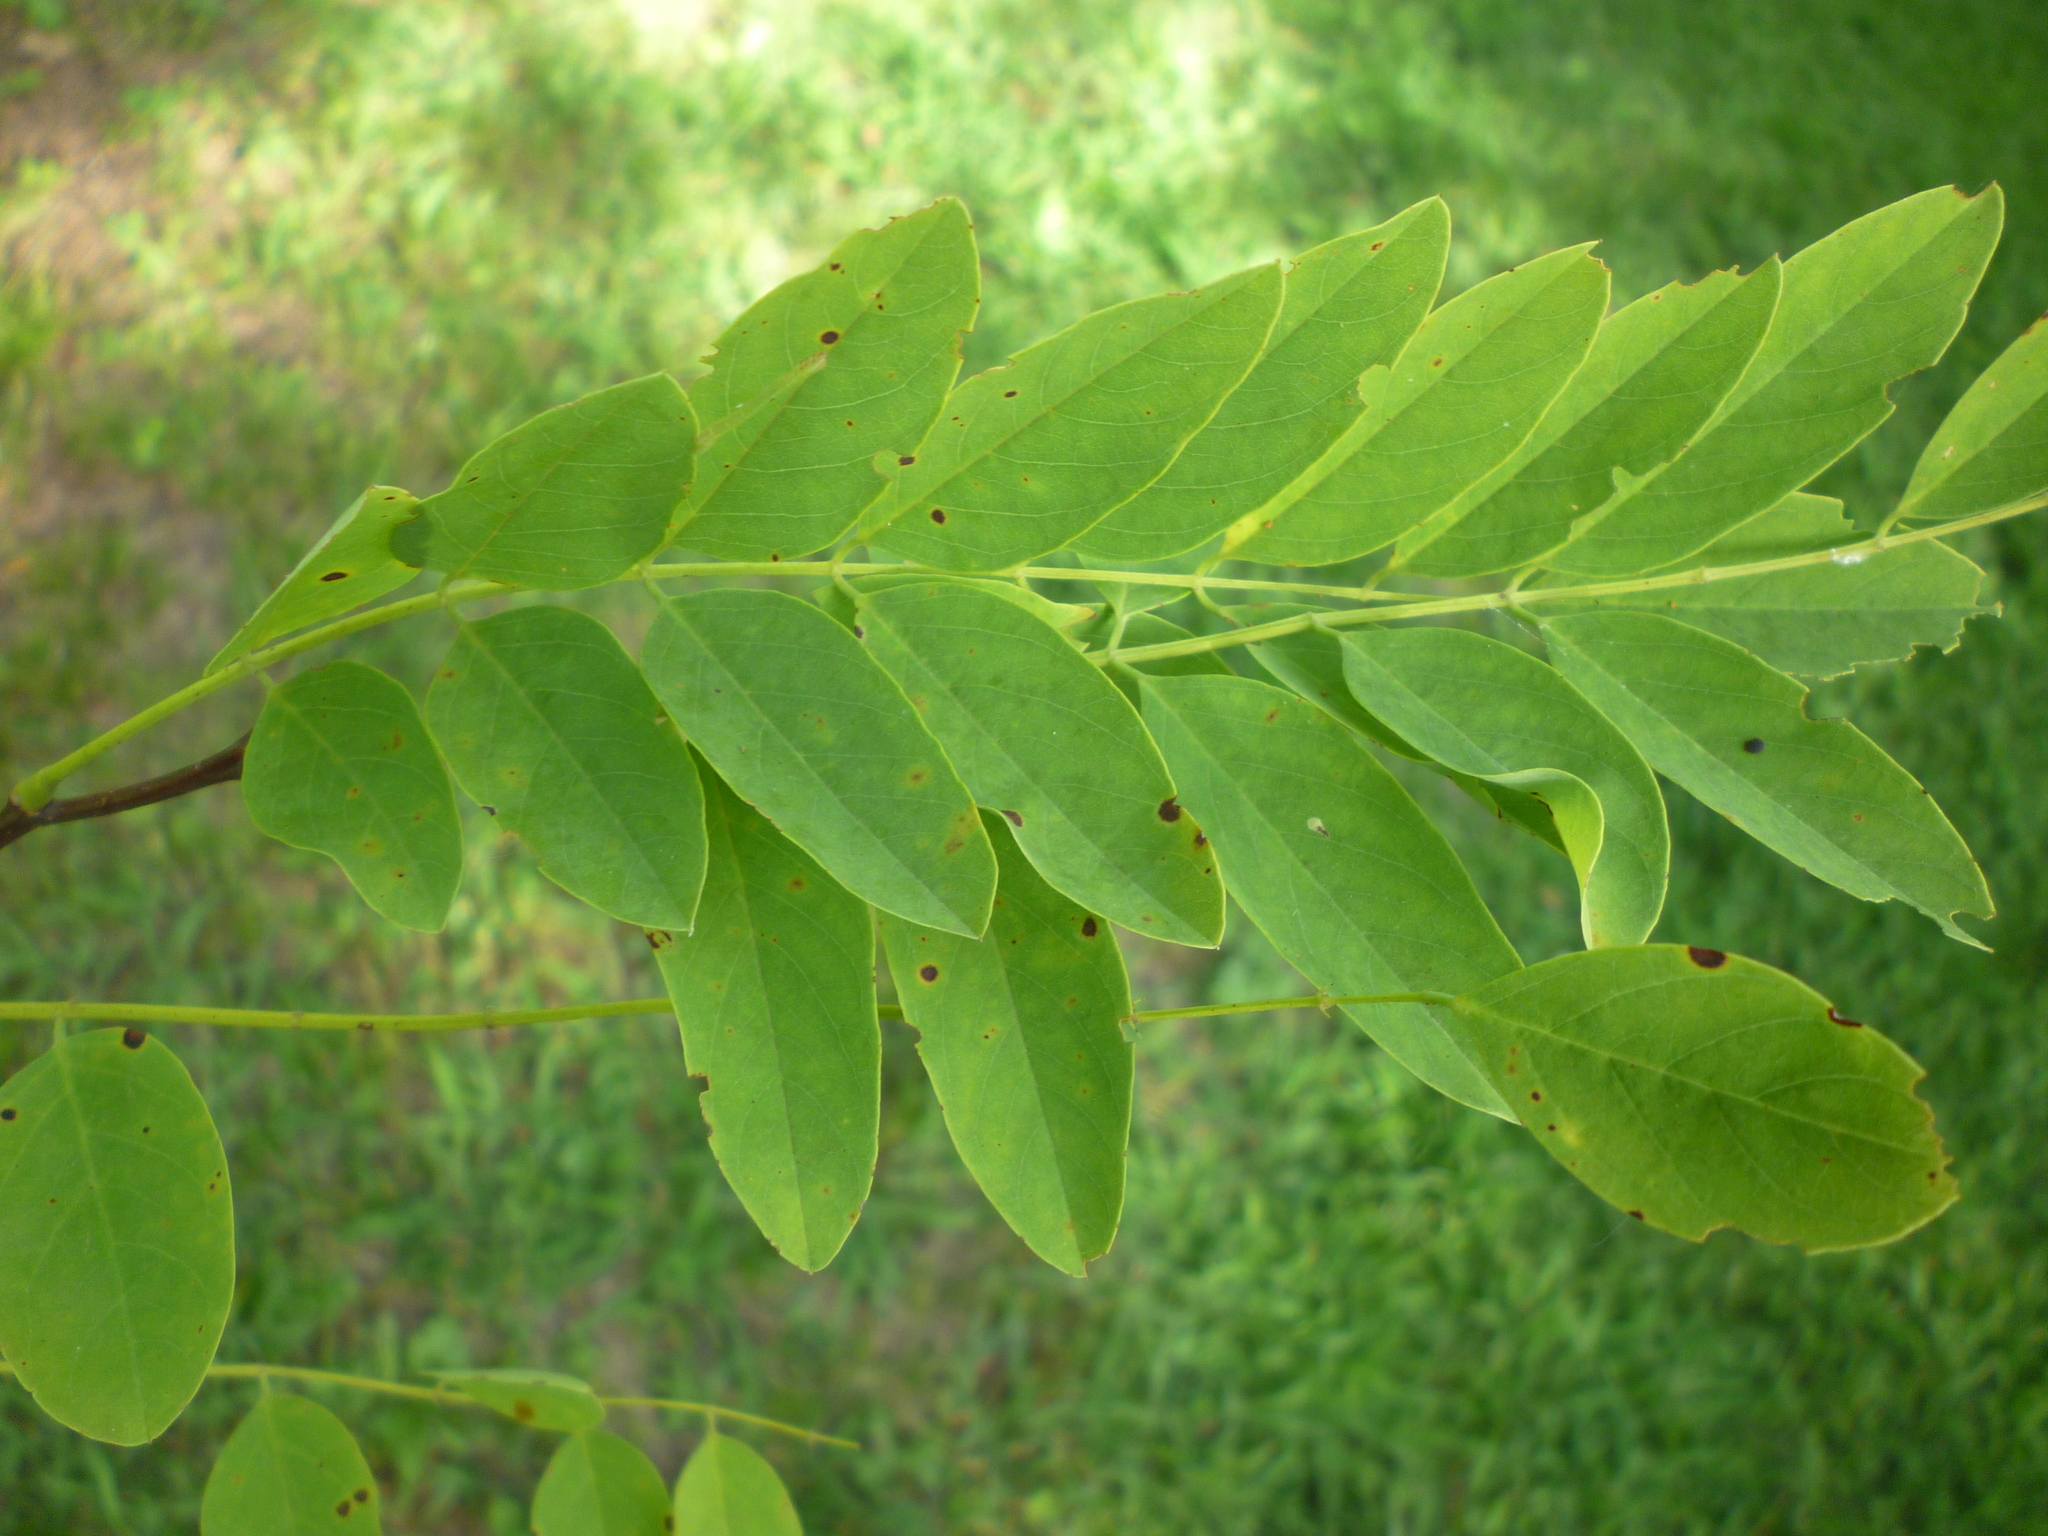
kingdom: Plantae
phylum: Tracheophyta
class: Magnoliopsida
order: Fabales
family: Fabaceae
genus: Robinia
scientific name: Robinia pseudoacacia
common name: Black locust
